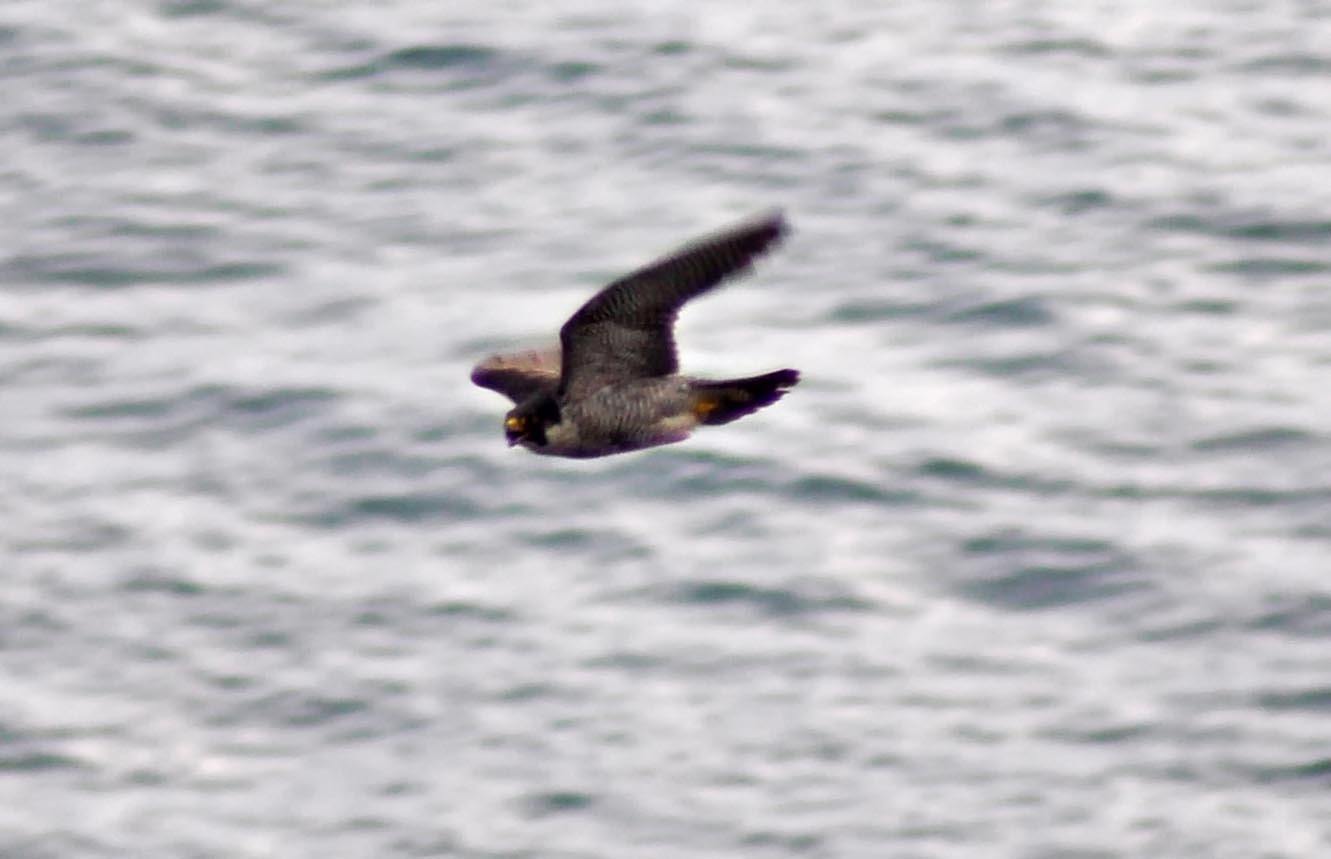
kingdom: Animalia
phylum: Chordata
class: Aves
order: Falconiformes
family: Falconidae
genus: Falco
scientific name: Falco peregrinus
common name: Peregrine falcon
